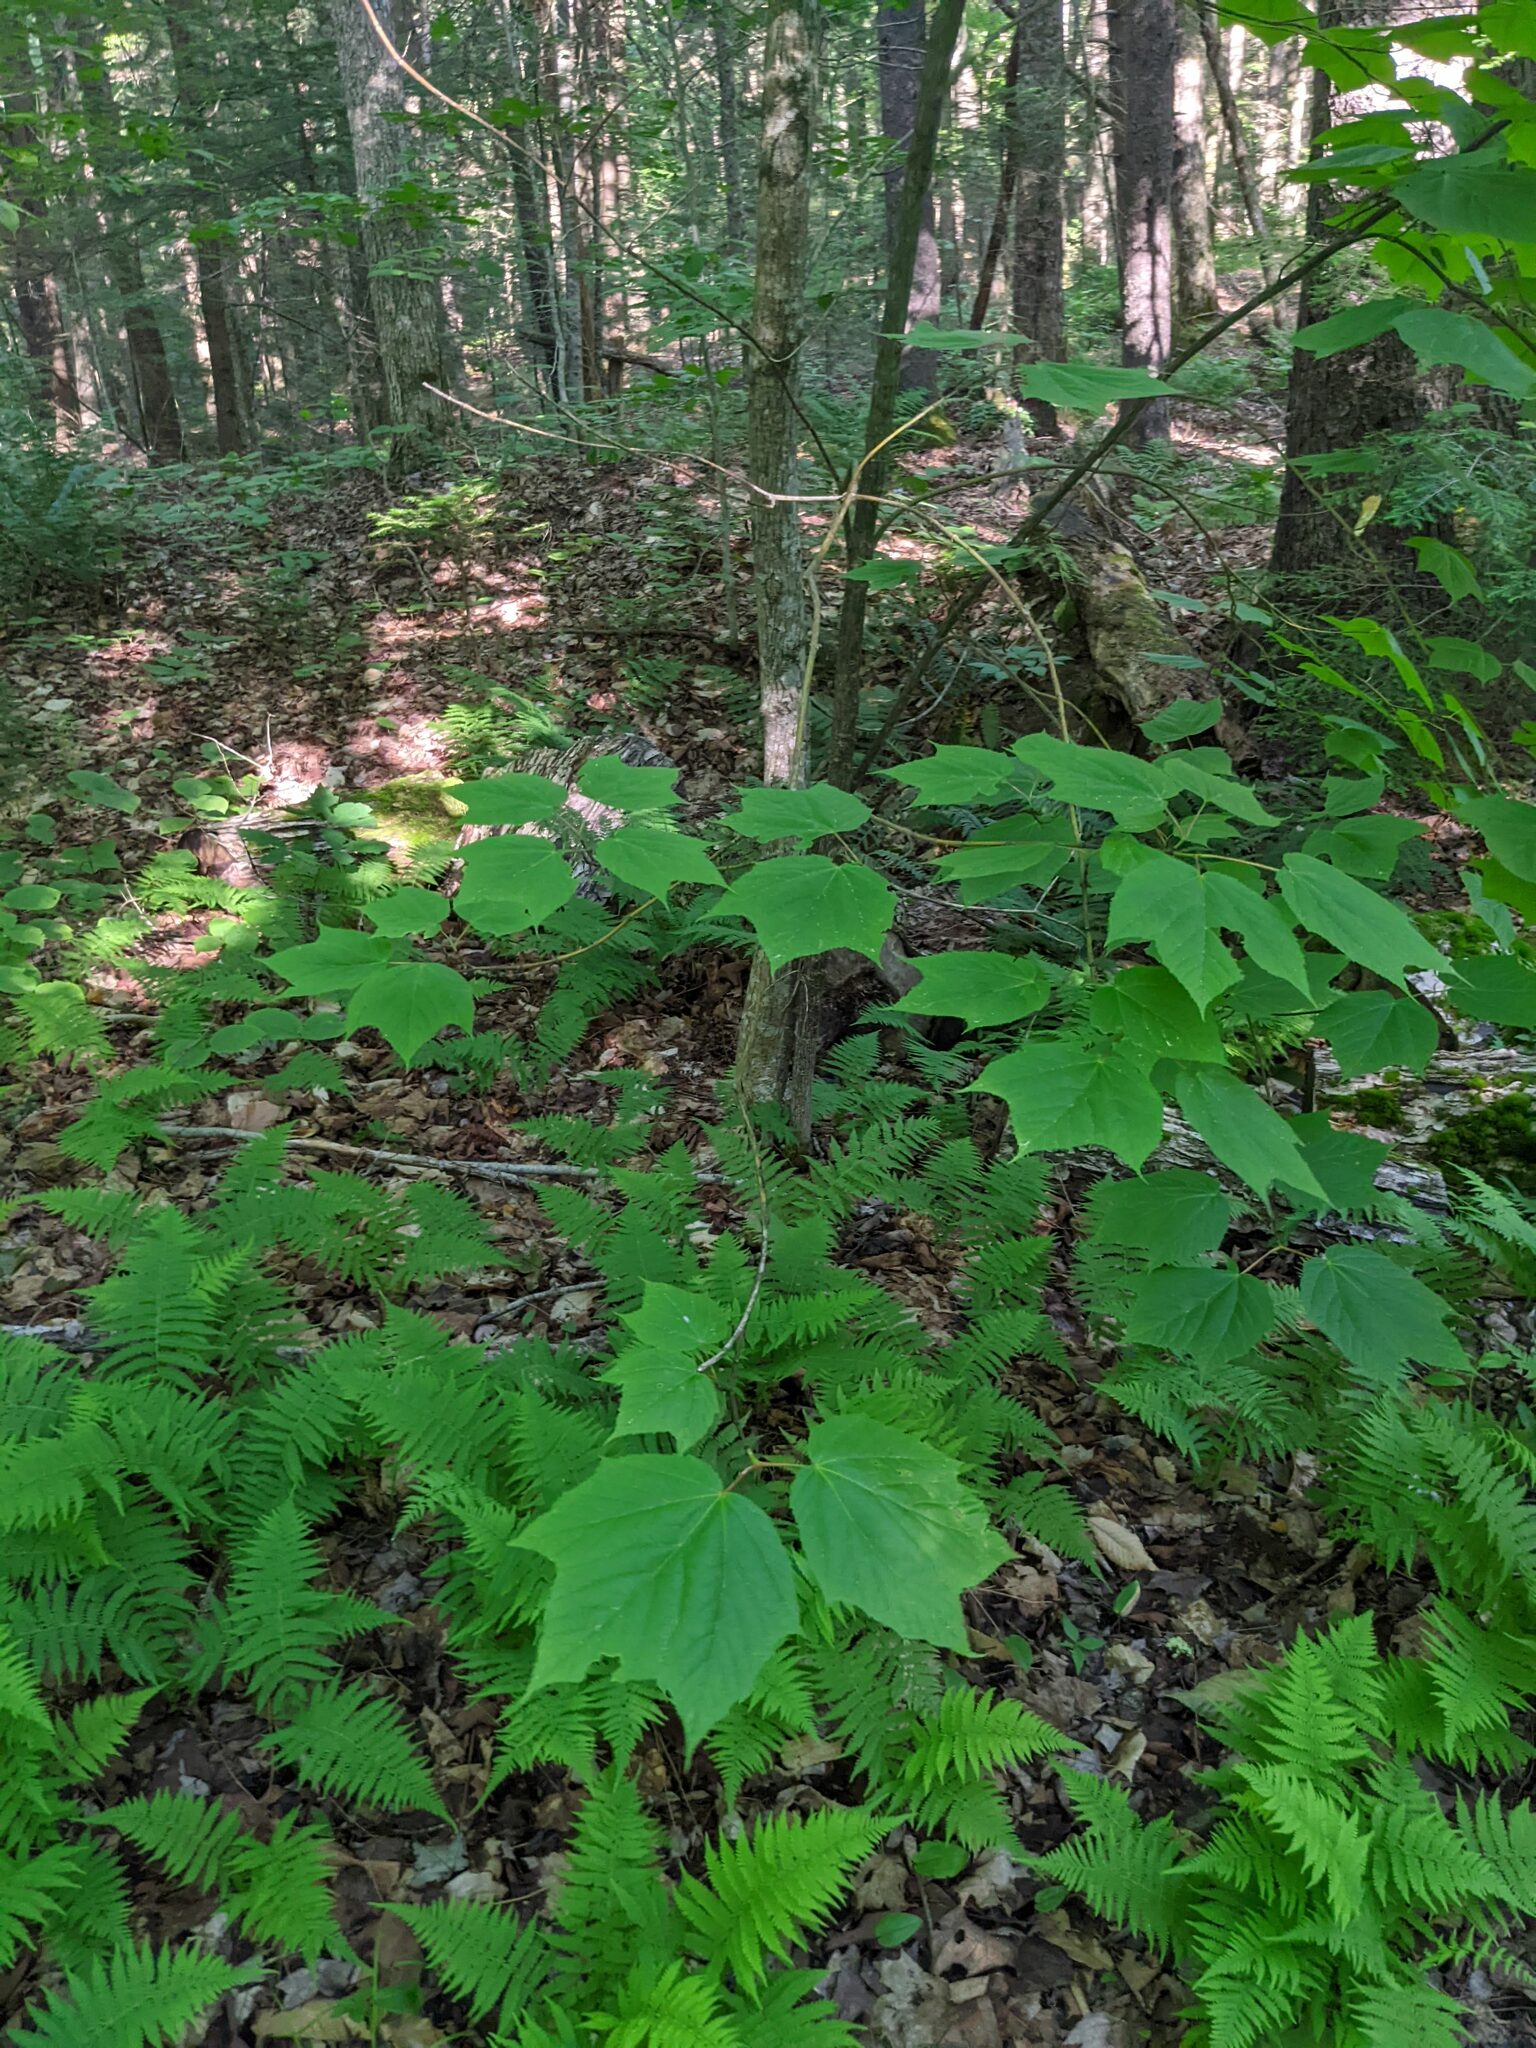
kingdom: Plantae
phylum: Tracheophyta
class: Magnoliopsida
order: Sapindales
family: Sapindaceae
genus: Acer
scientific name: Acer pensylvanicum
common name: Moosewood
